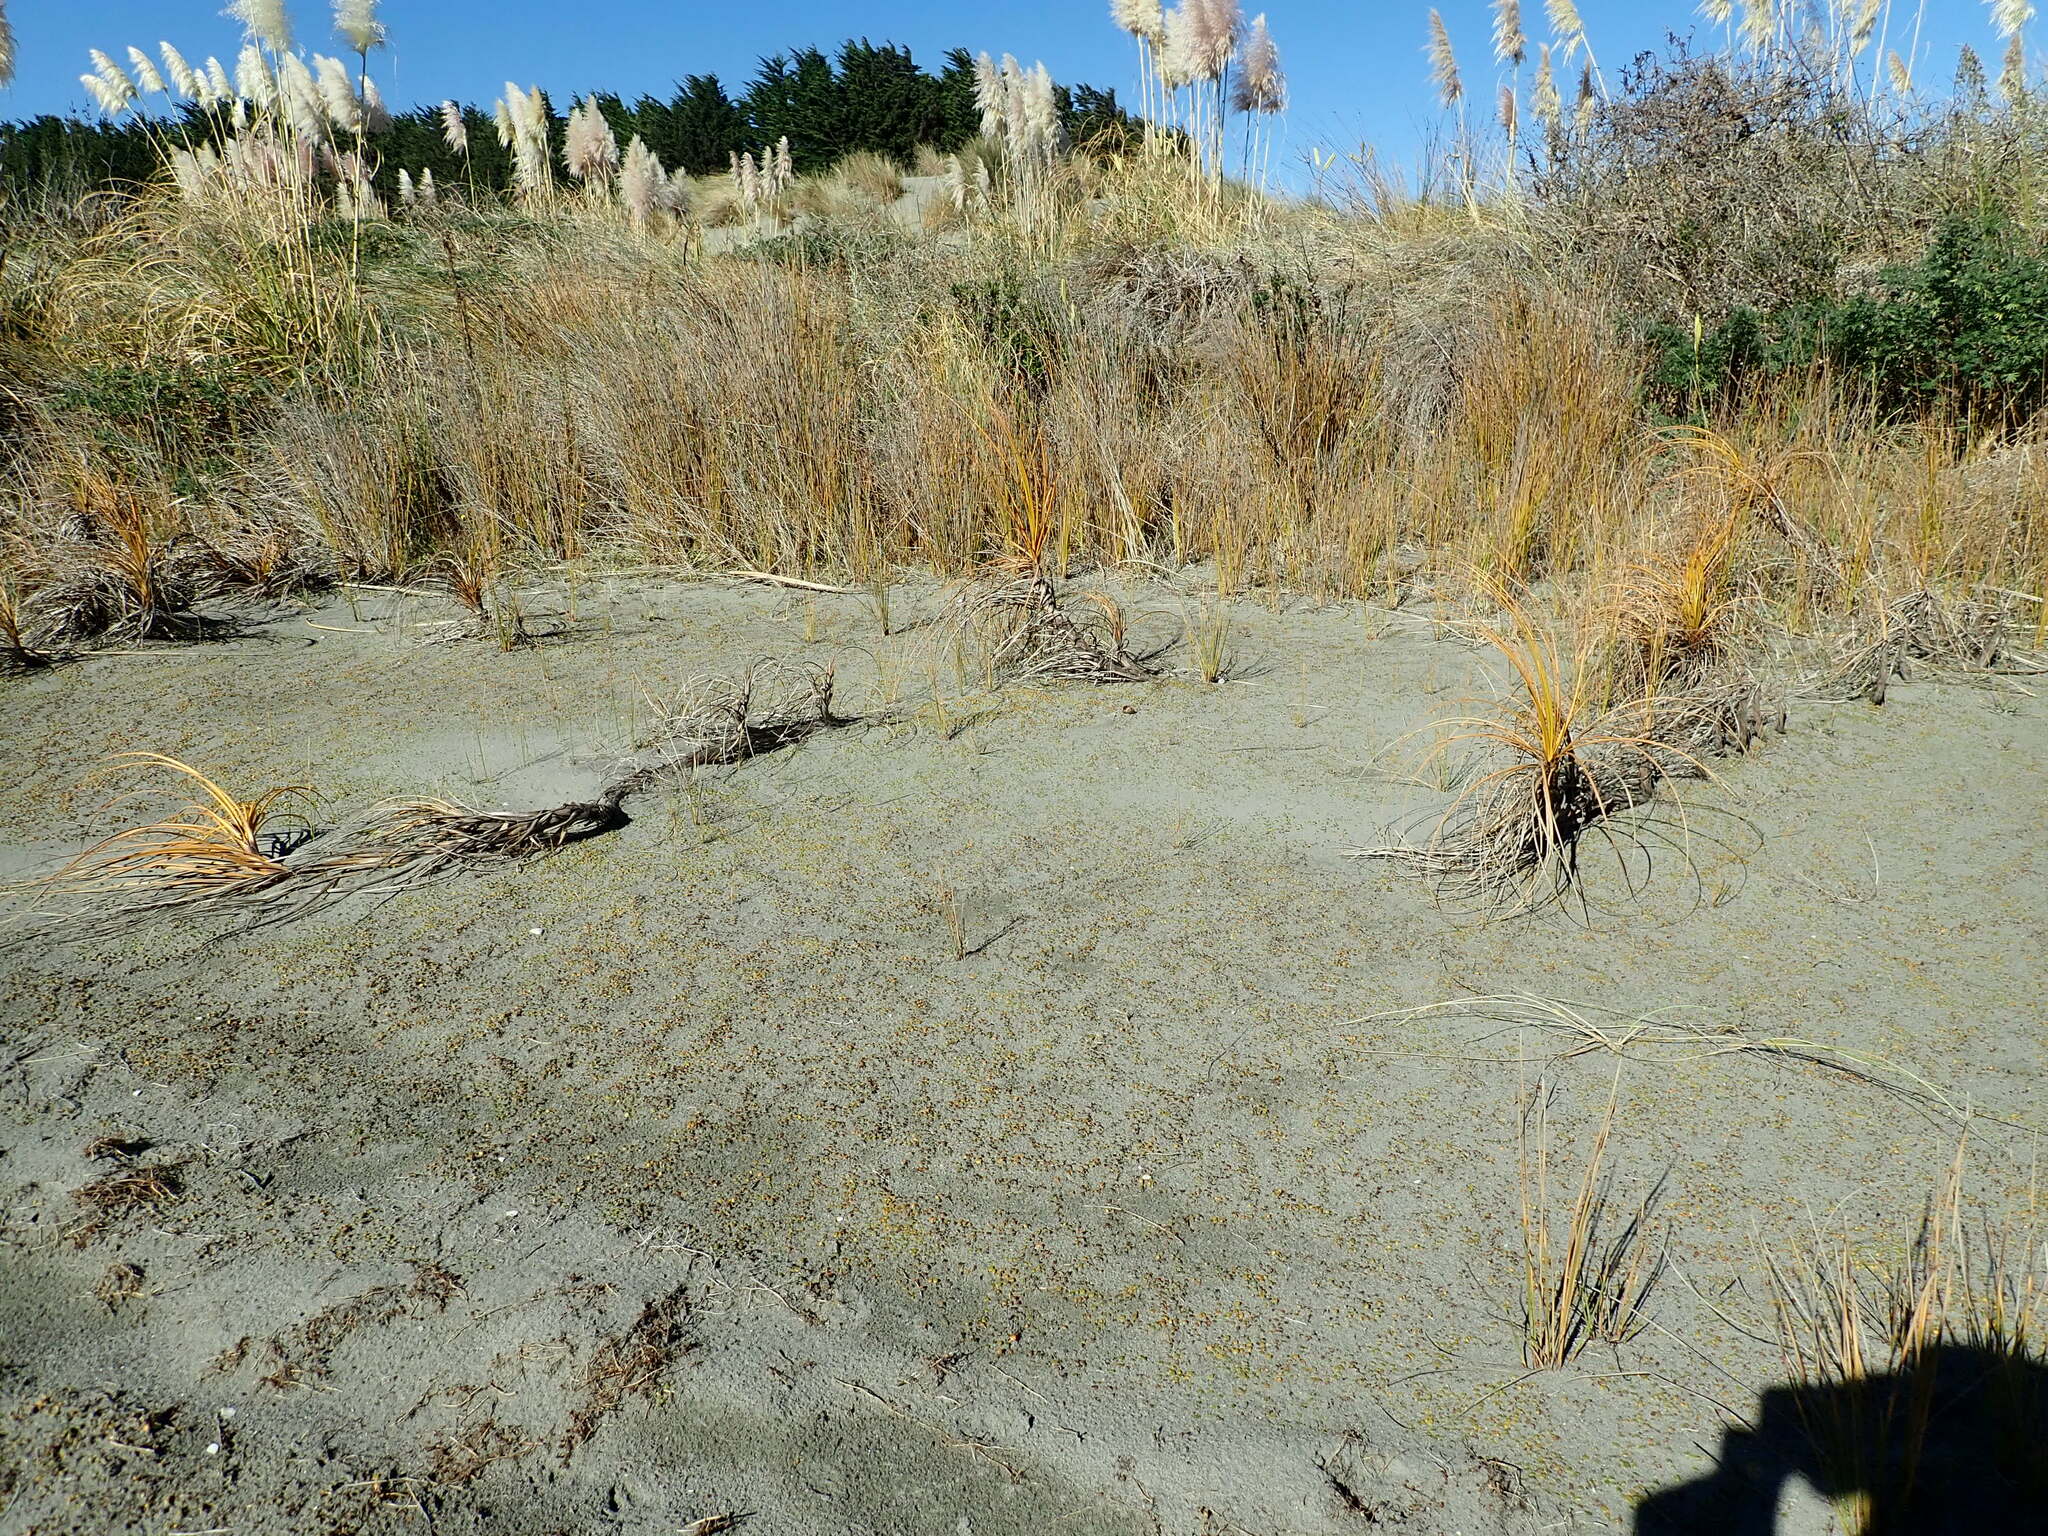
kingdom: Plantae
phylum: Tracheophyta
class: Liliopsida
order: Poales
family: Cyperaceae
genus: Ficinia
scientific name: Ficinia spiralis
